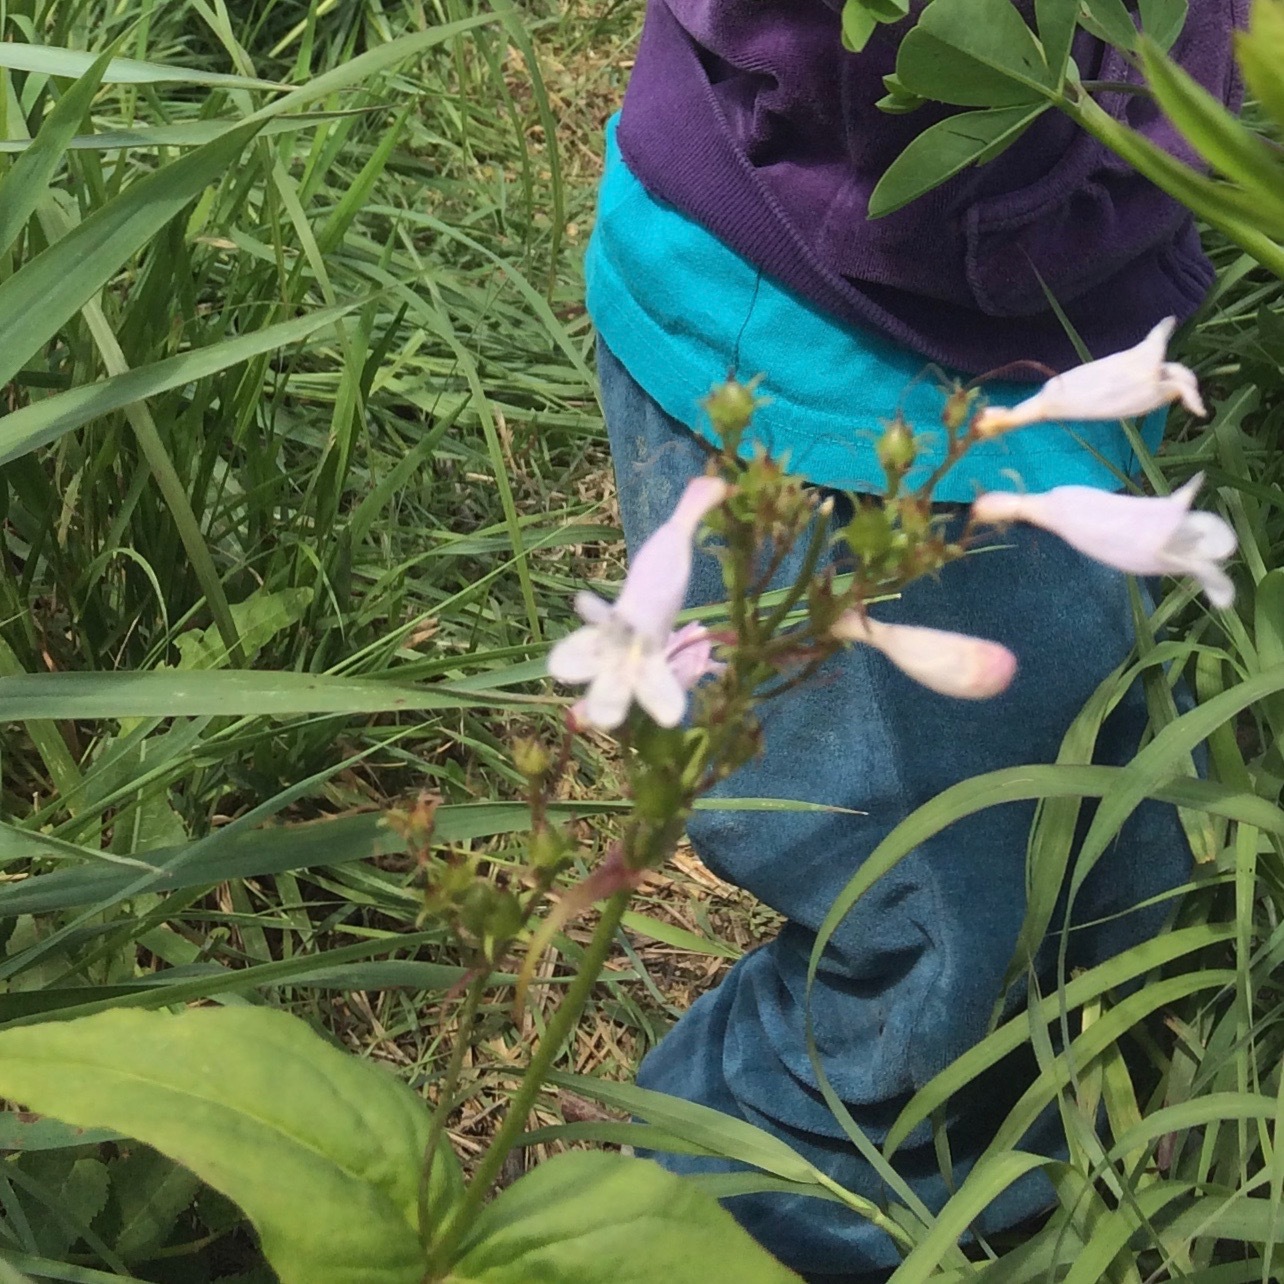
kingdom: Plantae
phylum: Tracheophyta
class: Magnoliopsida
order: Lamiales
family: Plantaginaceae
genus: Penstemon
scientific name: Penstemon digitalis
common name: Foxglove beardtongue
